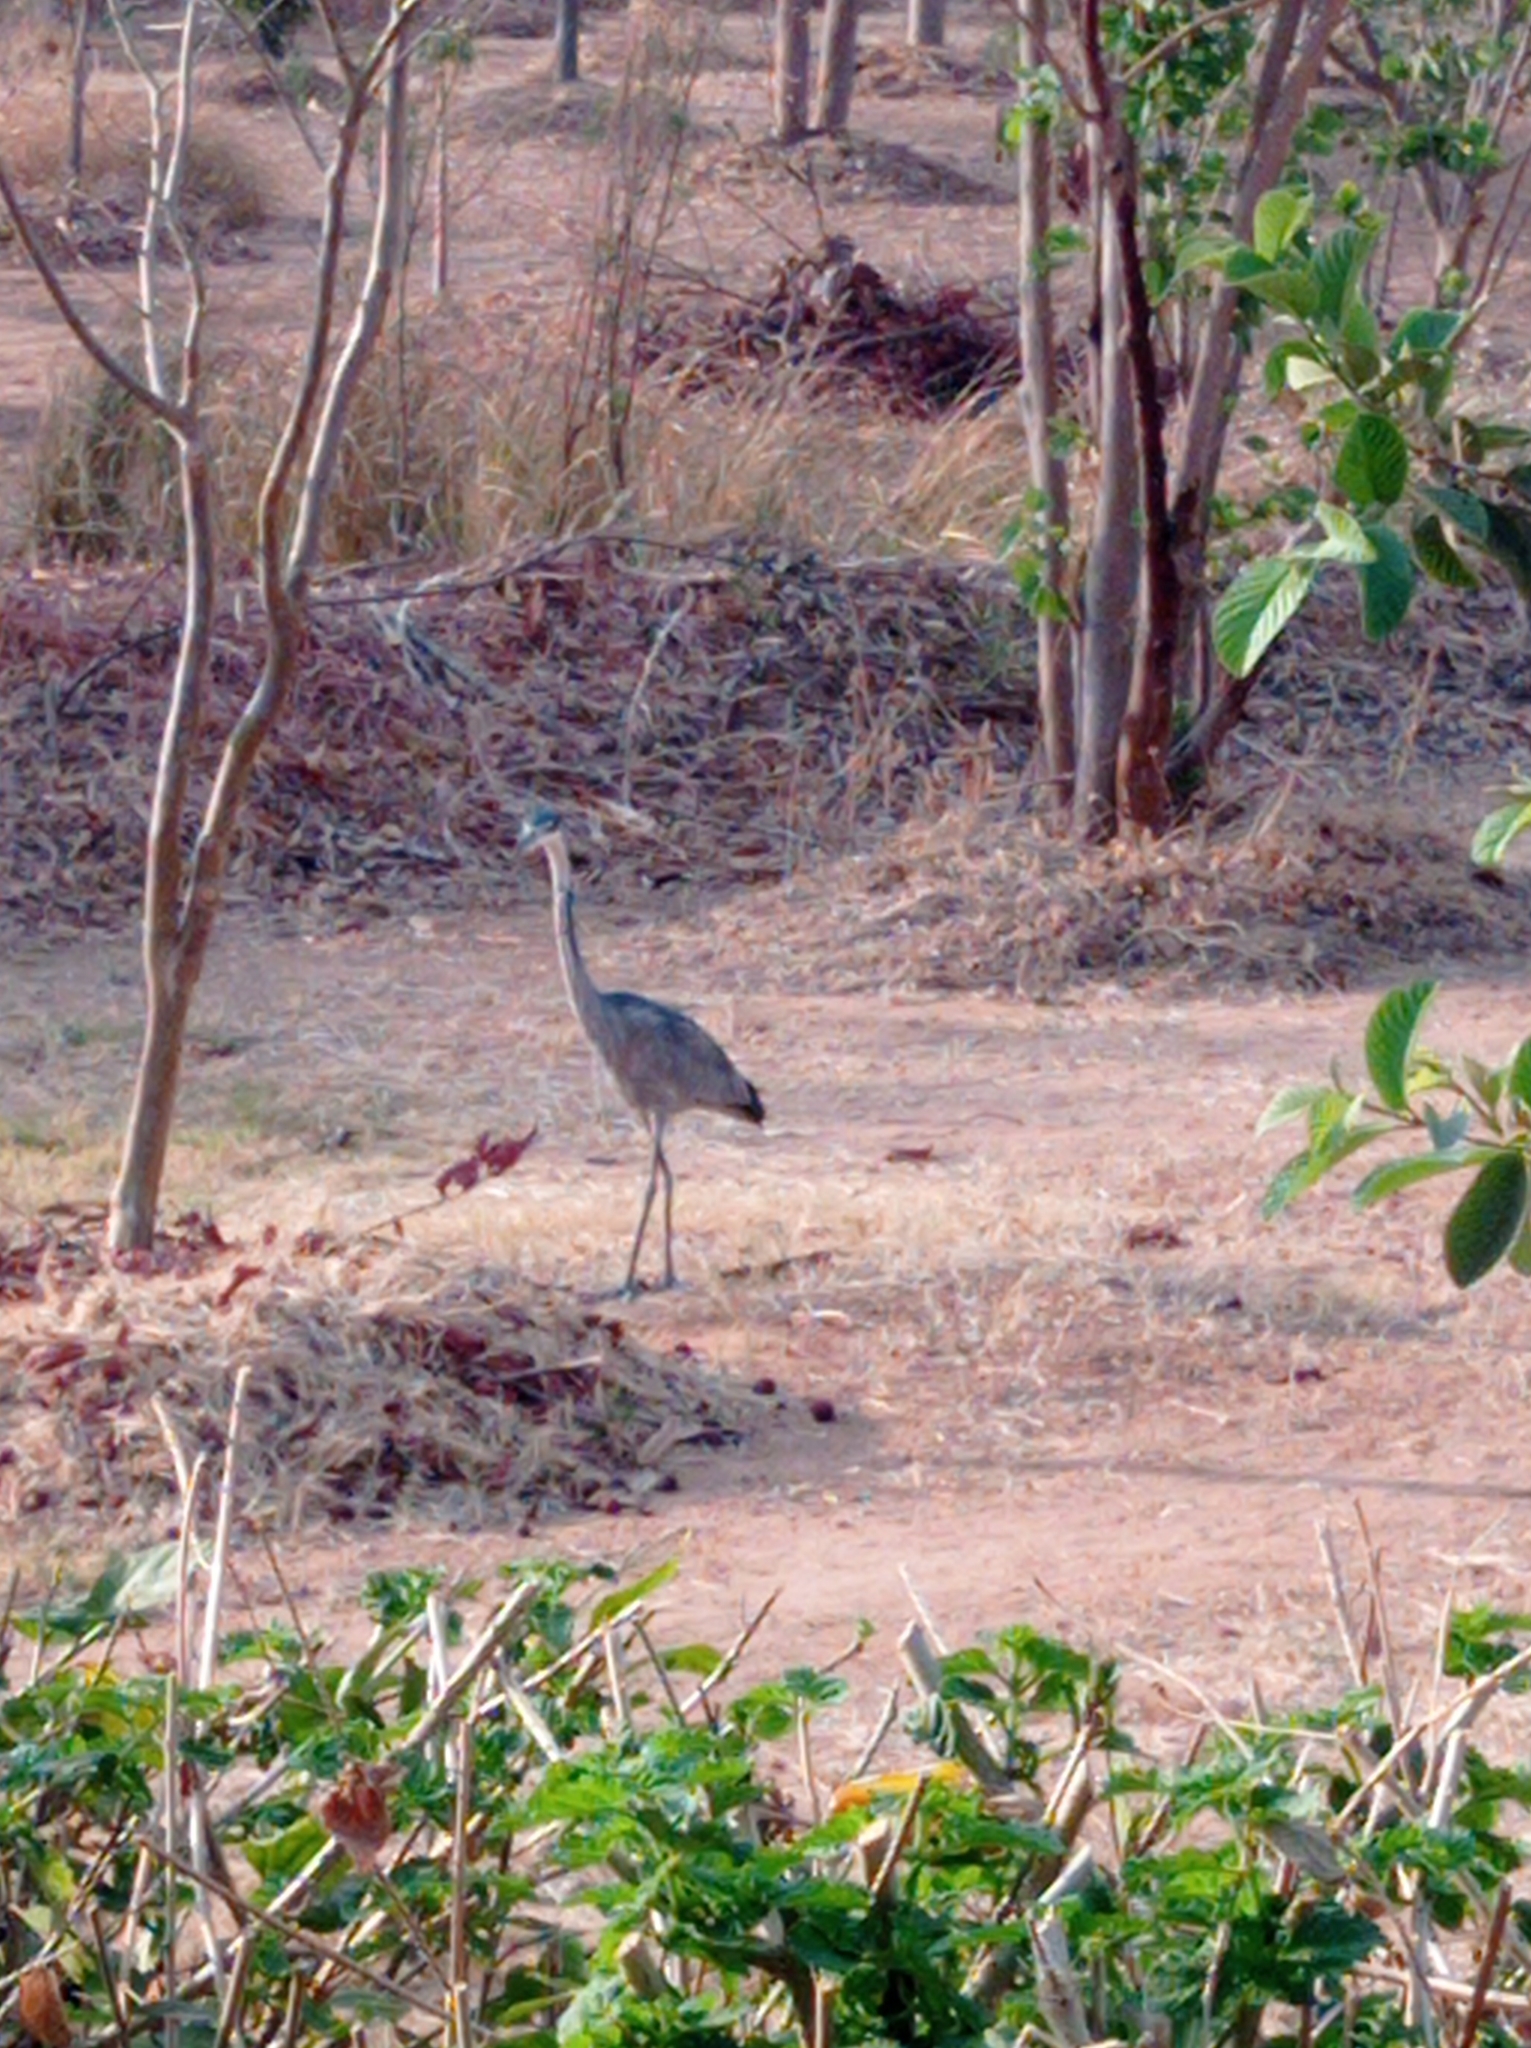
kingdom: Animalia
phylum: Chordata
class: Aves
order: Pelecaniformes
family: Ardeidae
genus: Ardea
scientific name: Ardea melanocephala
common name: Black-headed heron
